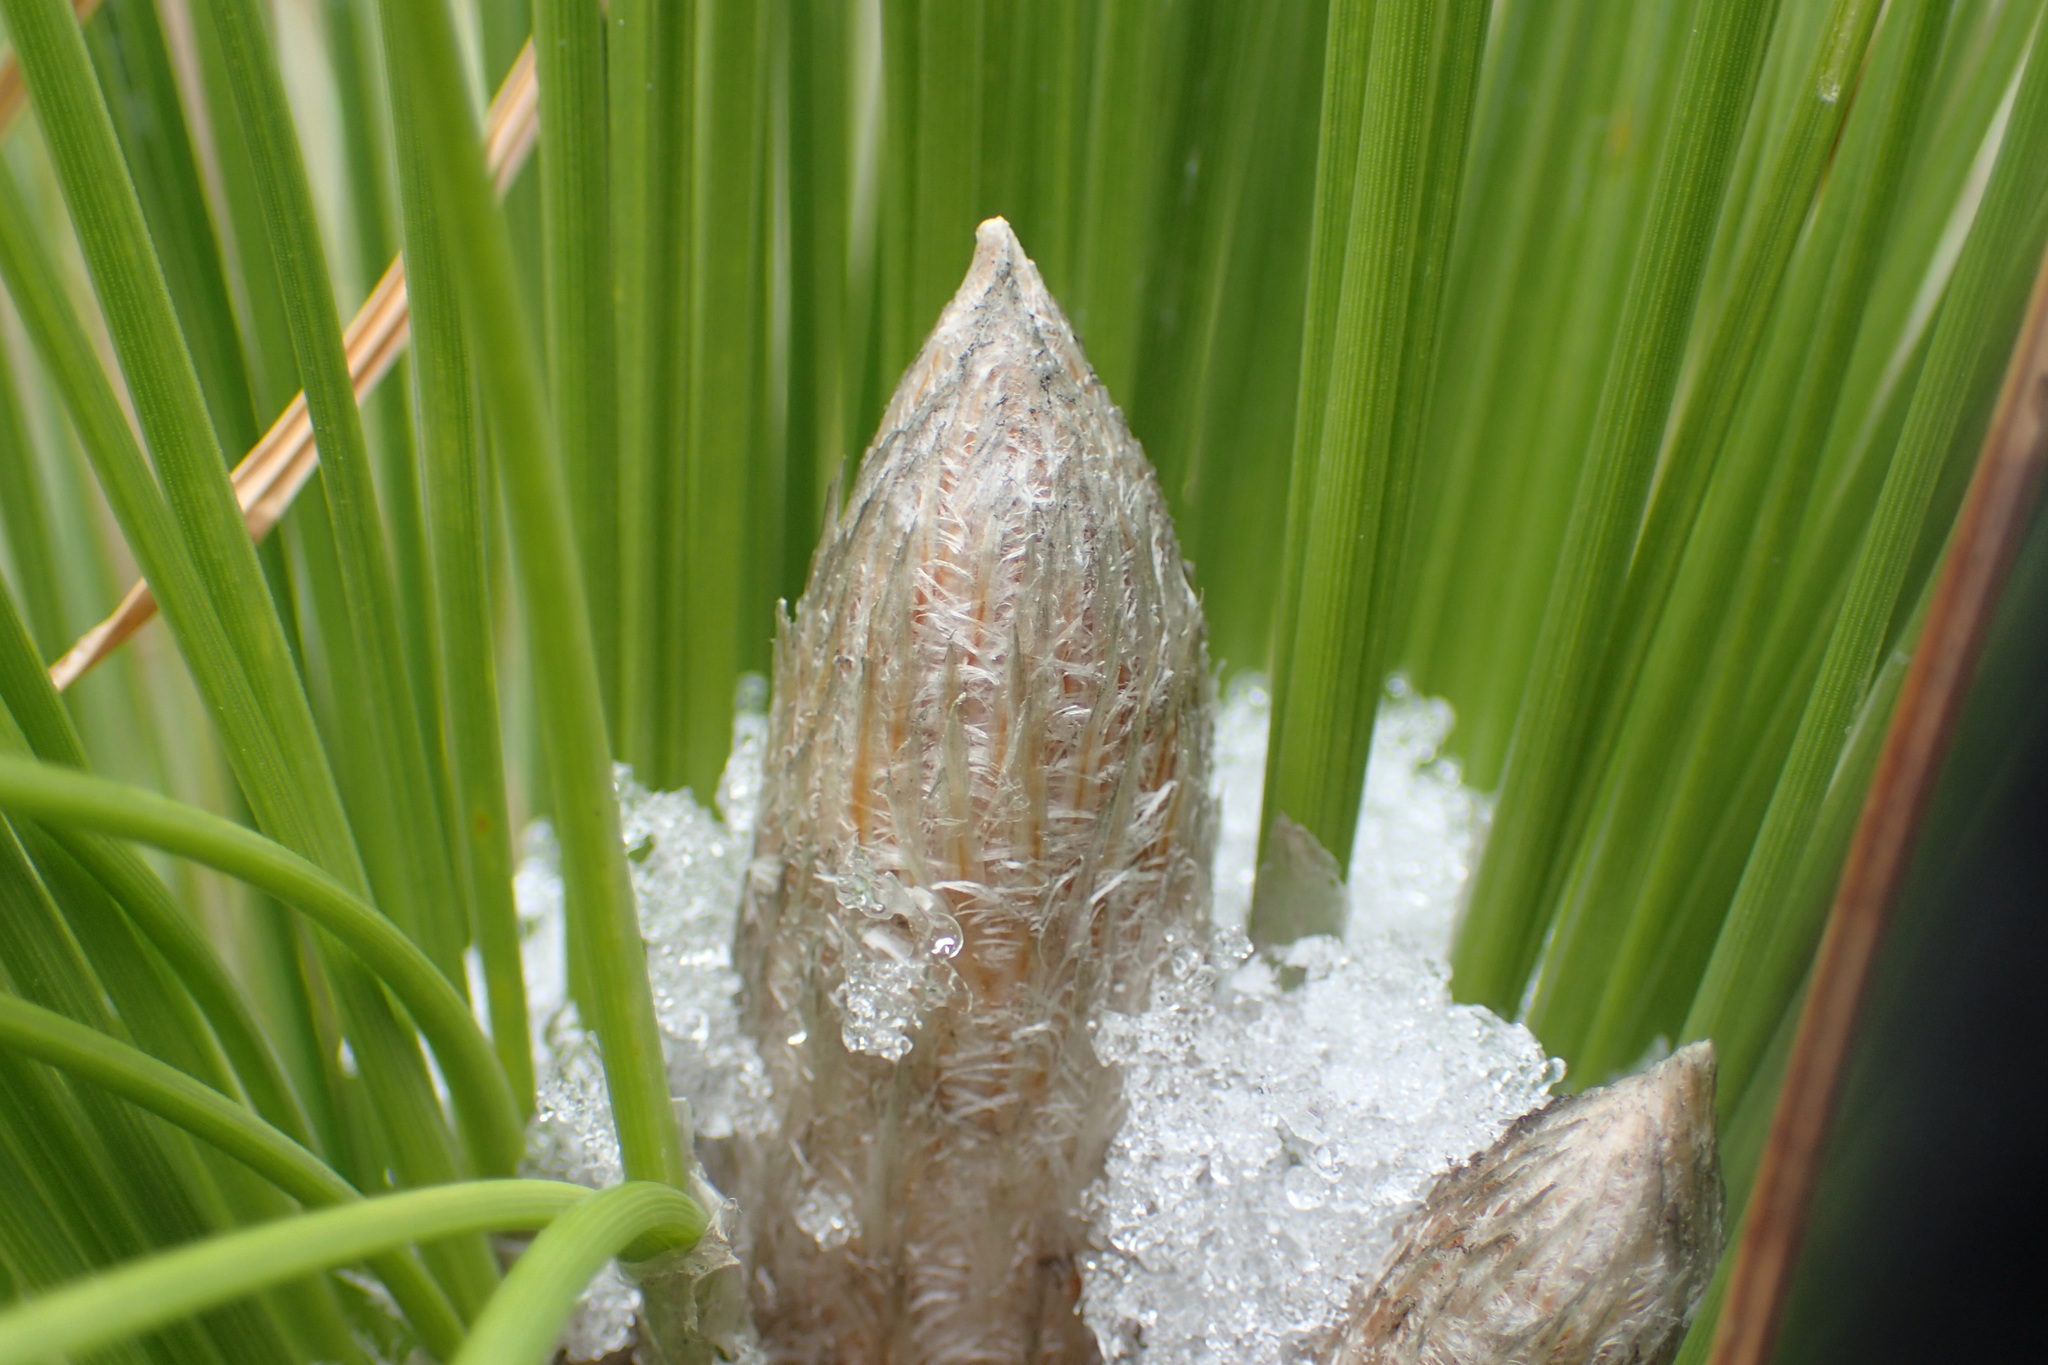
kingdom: Plantae
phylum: Tracheophyta
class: Pinopsida
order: Pinales
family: Pinaceae
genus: Pinus
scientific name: Pinus palustris
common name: Longleaf pine
